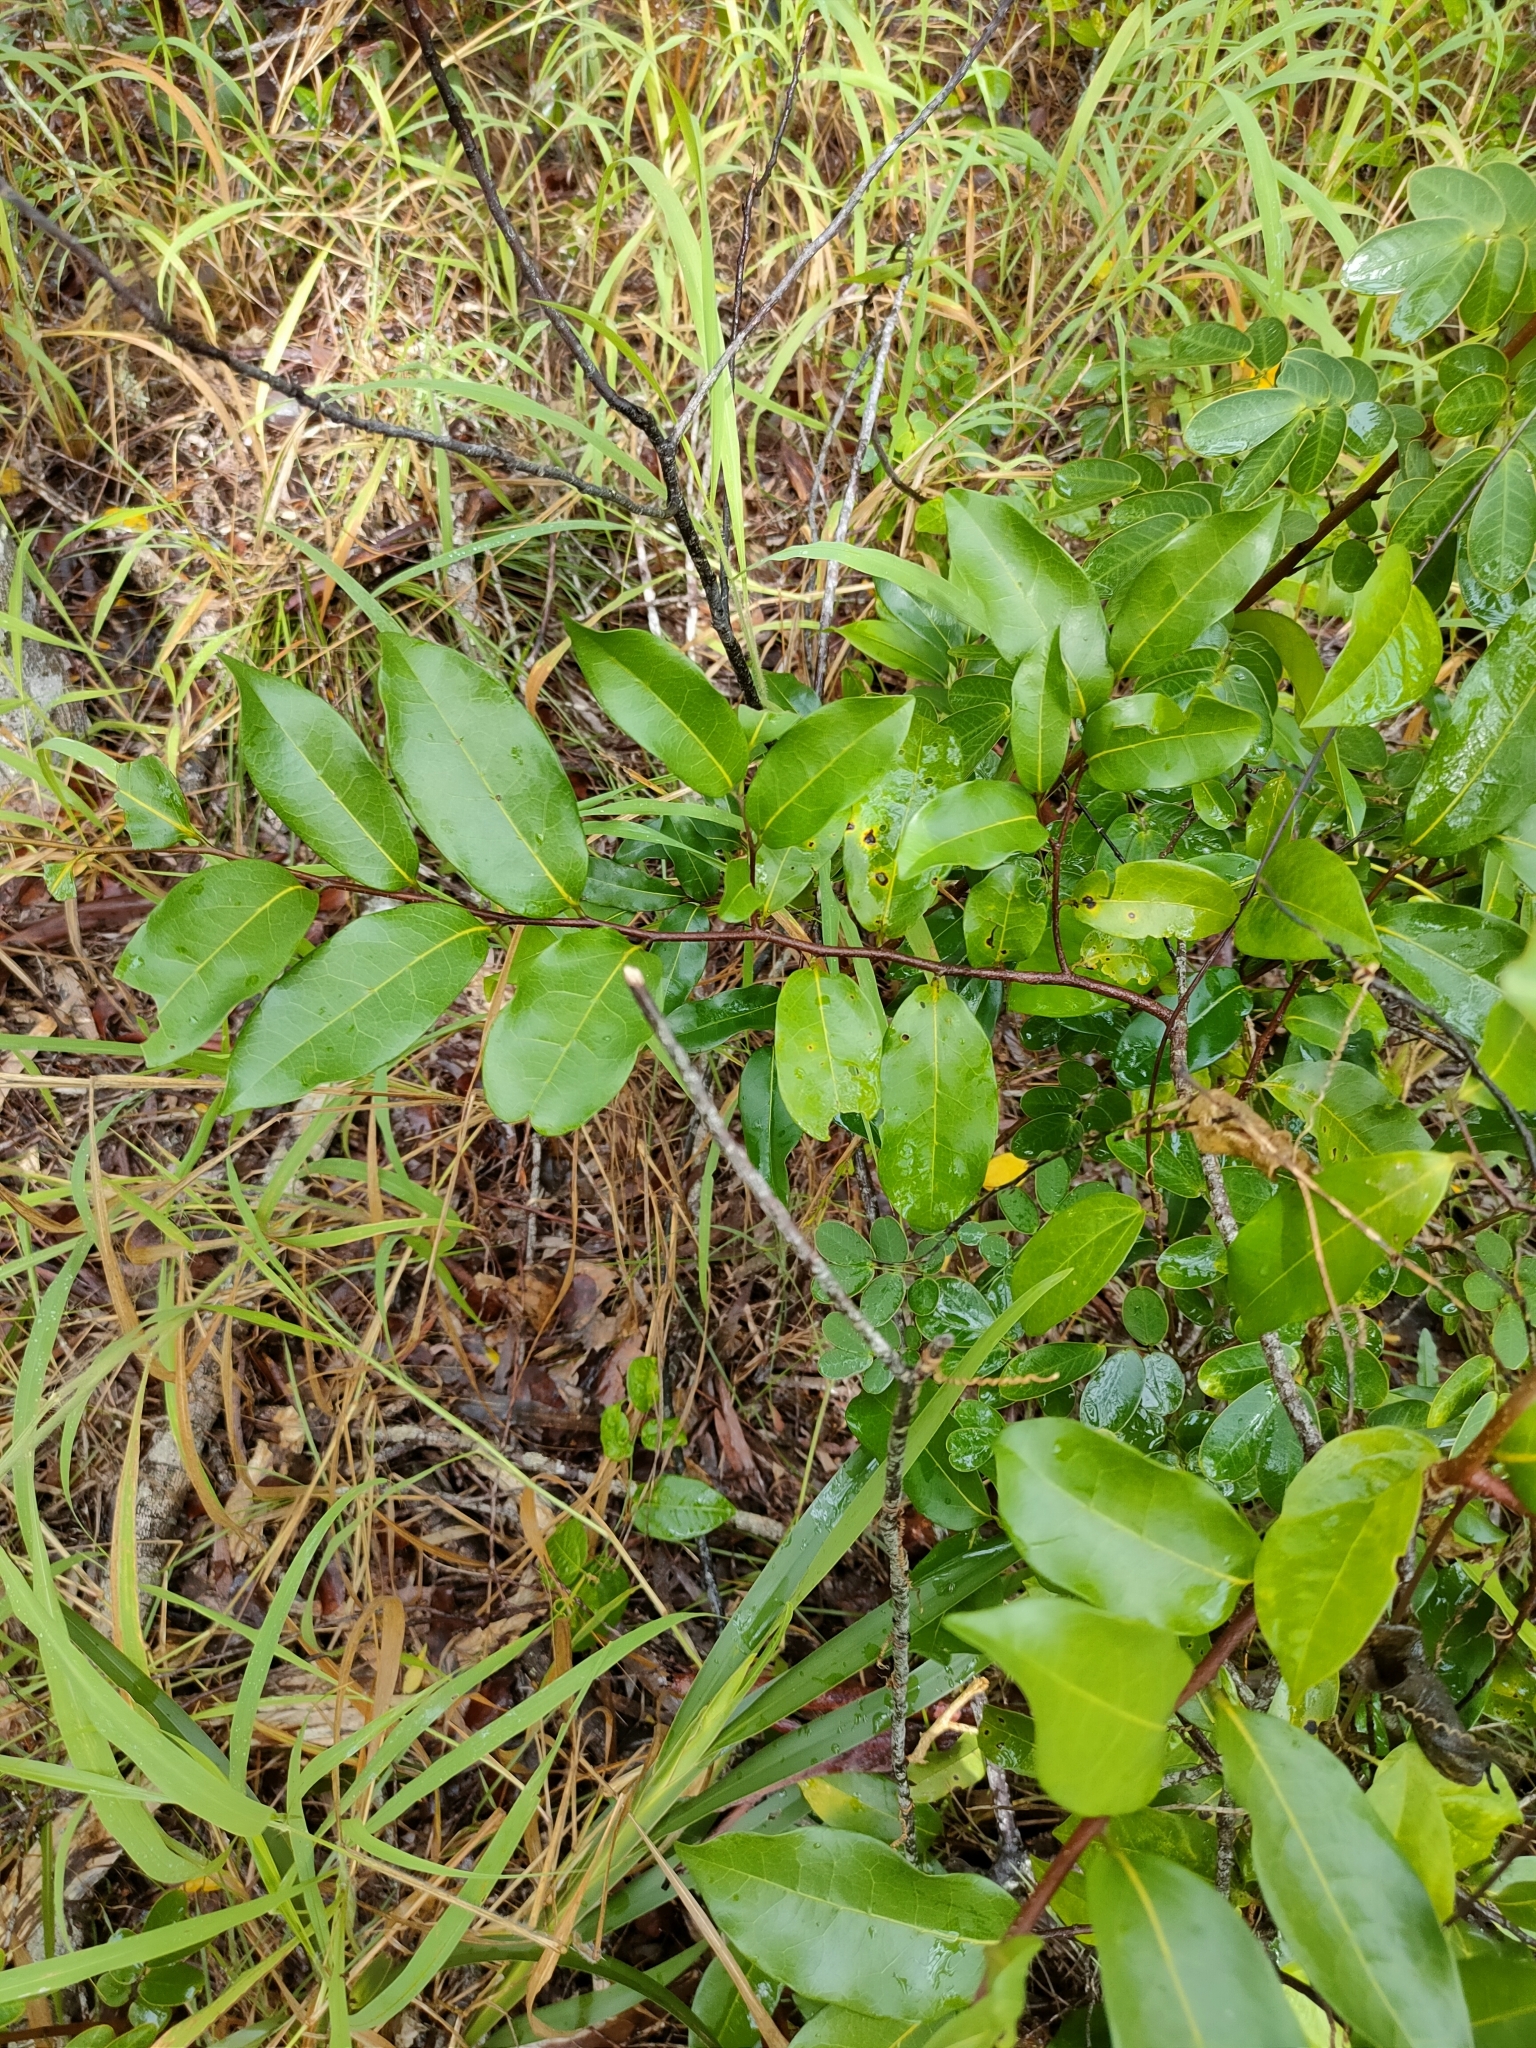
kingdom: Plantae
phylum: Tracheophyta
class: Magnoliopsida
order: Magnoliales
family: Annonaceae
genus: Uvaria
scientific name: Uvaria leichhardtii
